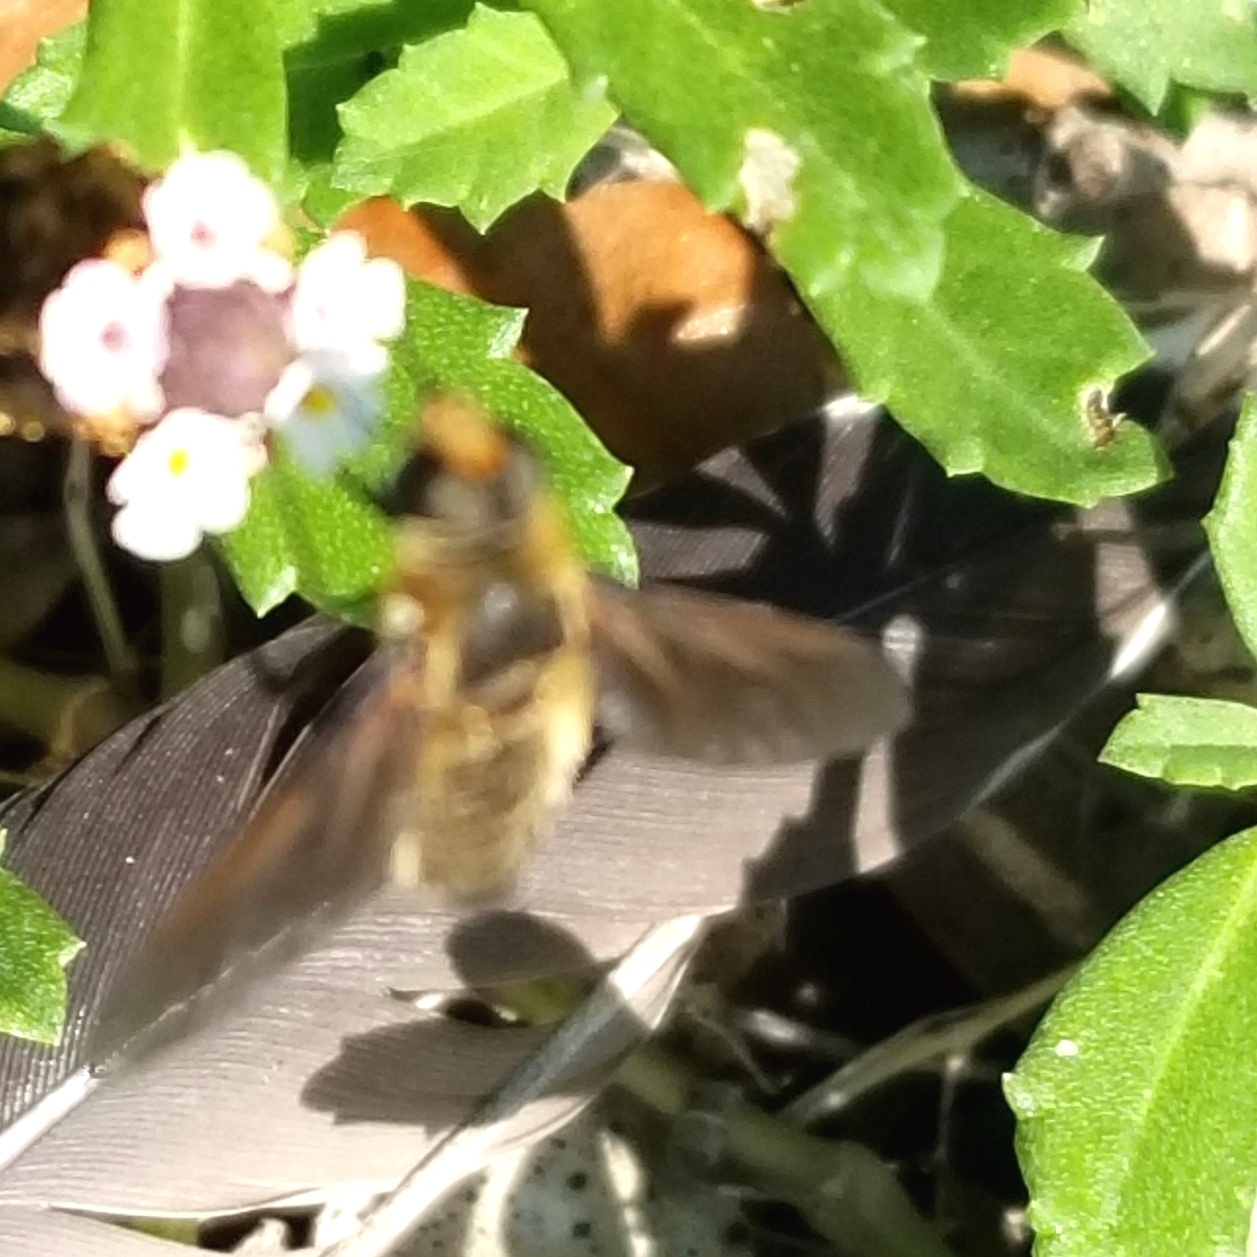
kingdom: Animalia
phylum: Arthropoda
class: Insecta
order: Diptera
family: Bombyliidae
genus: Poecilanthrax
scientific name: Poecilanthrax lucifer
